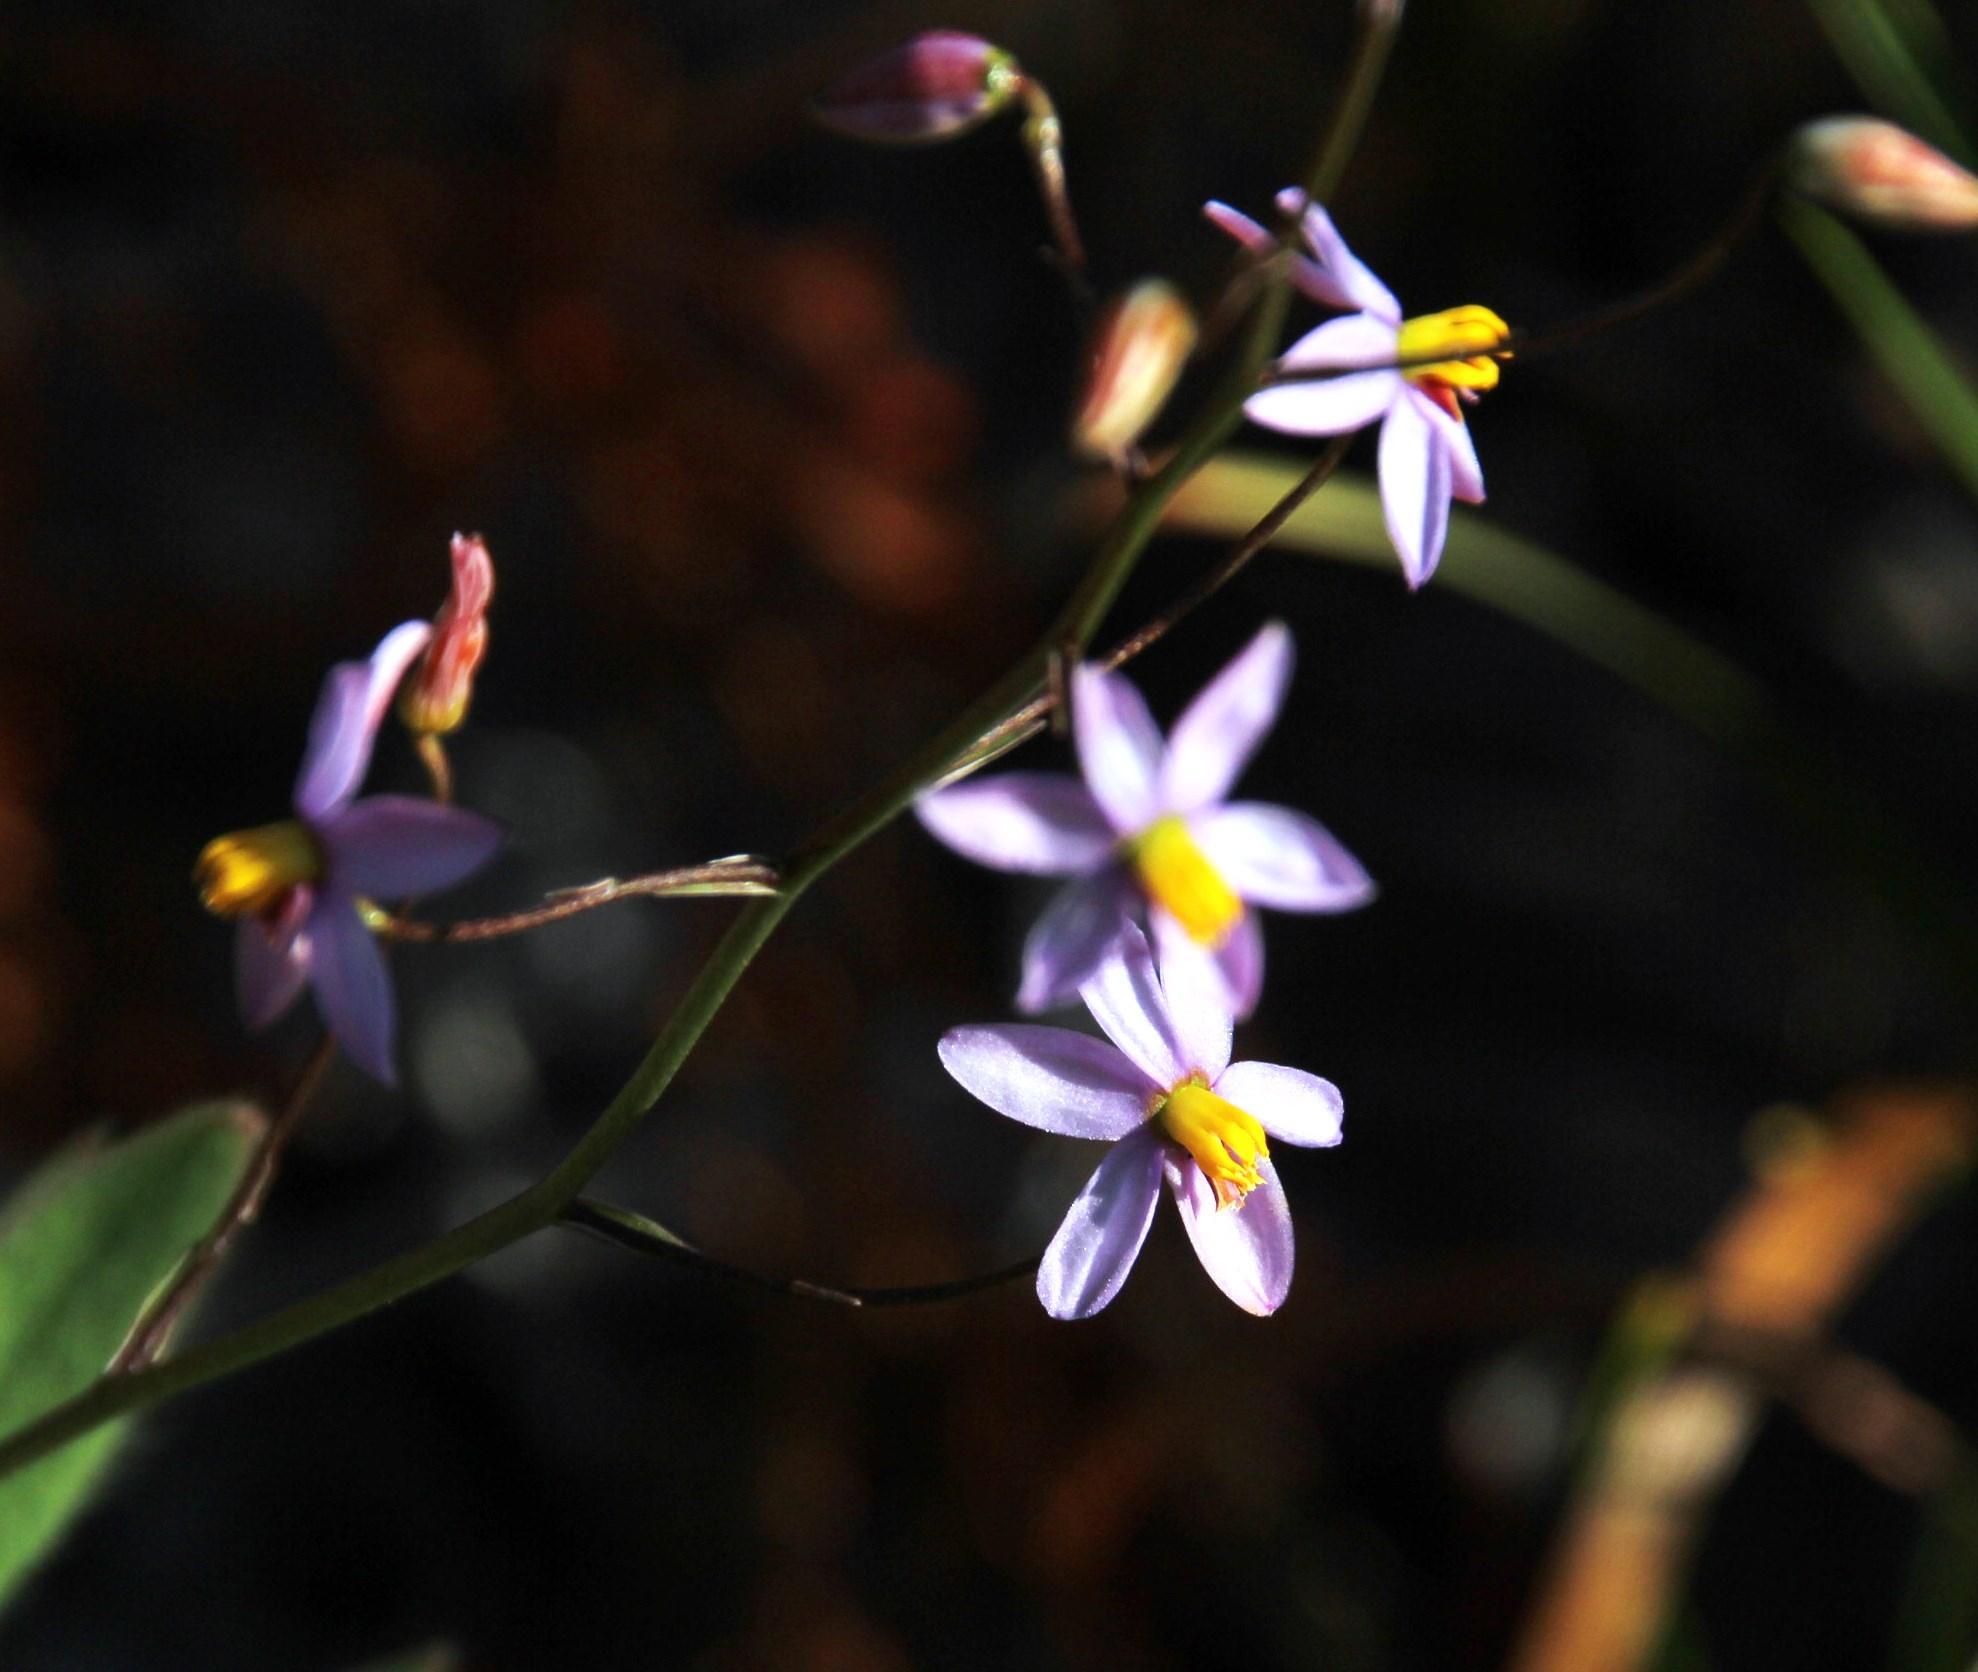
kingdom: Plantae
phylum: Tracheophyta
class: Liliopsida
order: Asparagales
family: Tecophilaeaceae
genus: Cyanella
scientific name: Cyanella hyacinthoides
